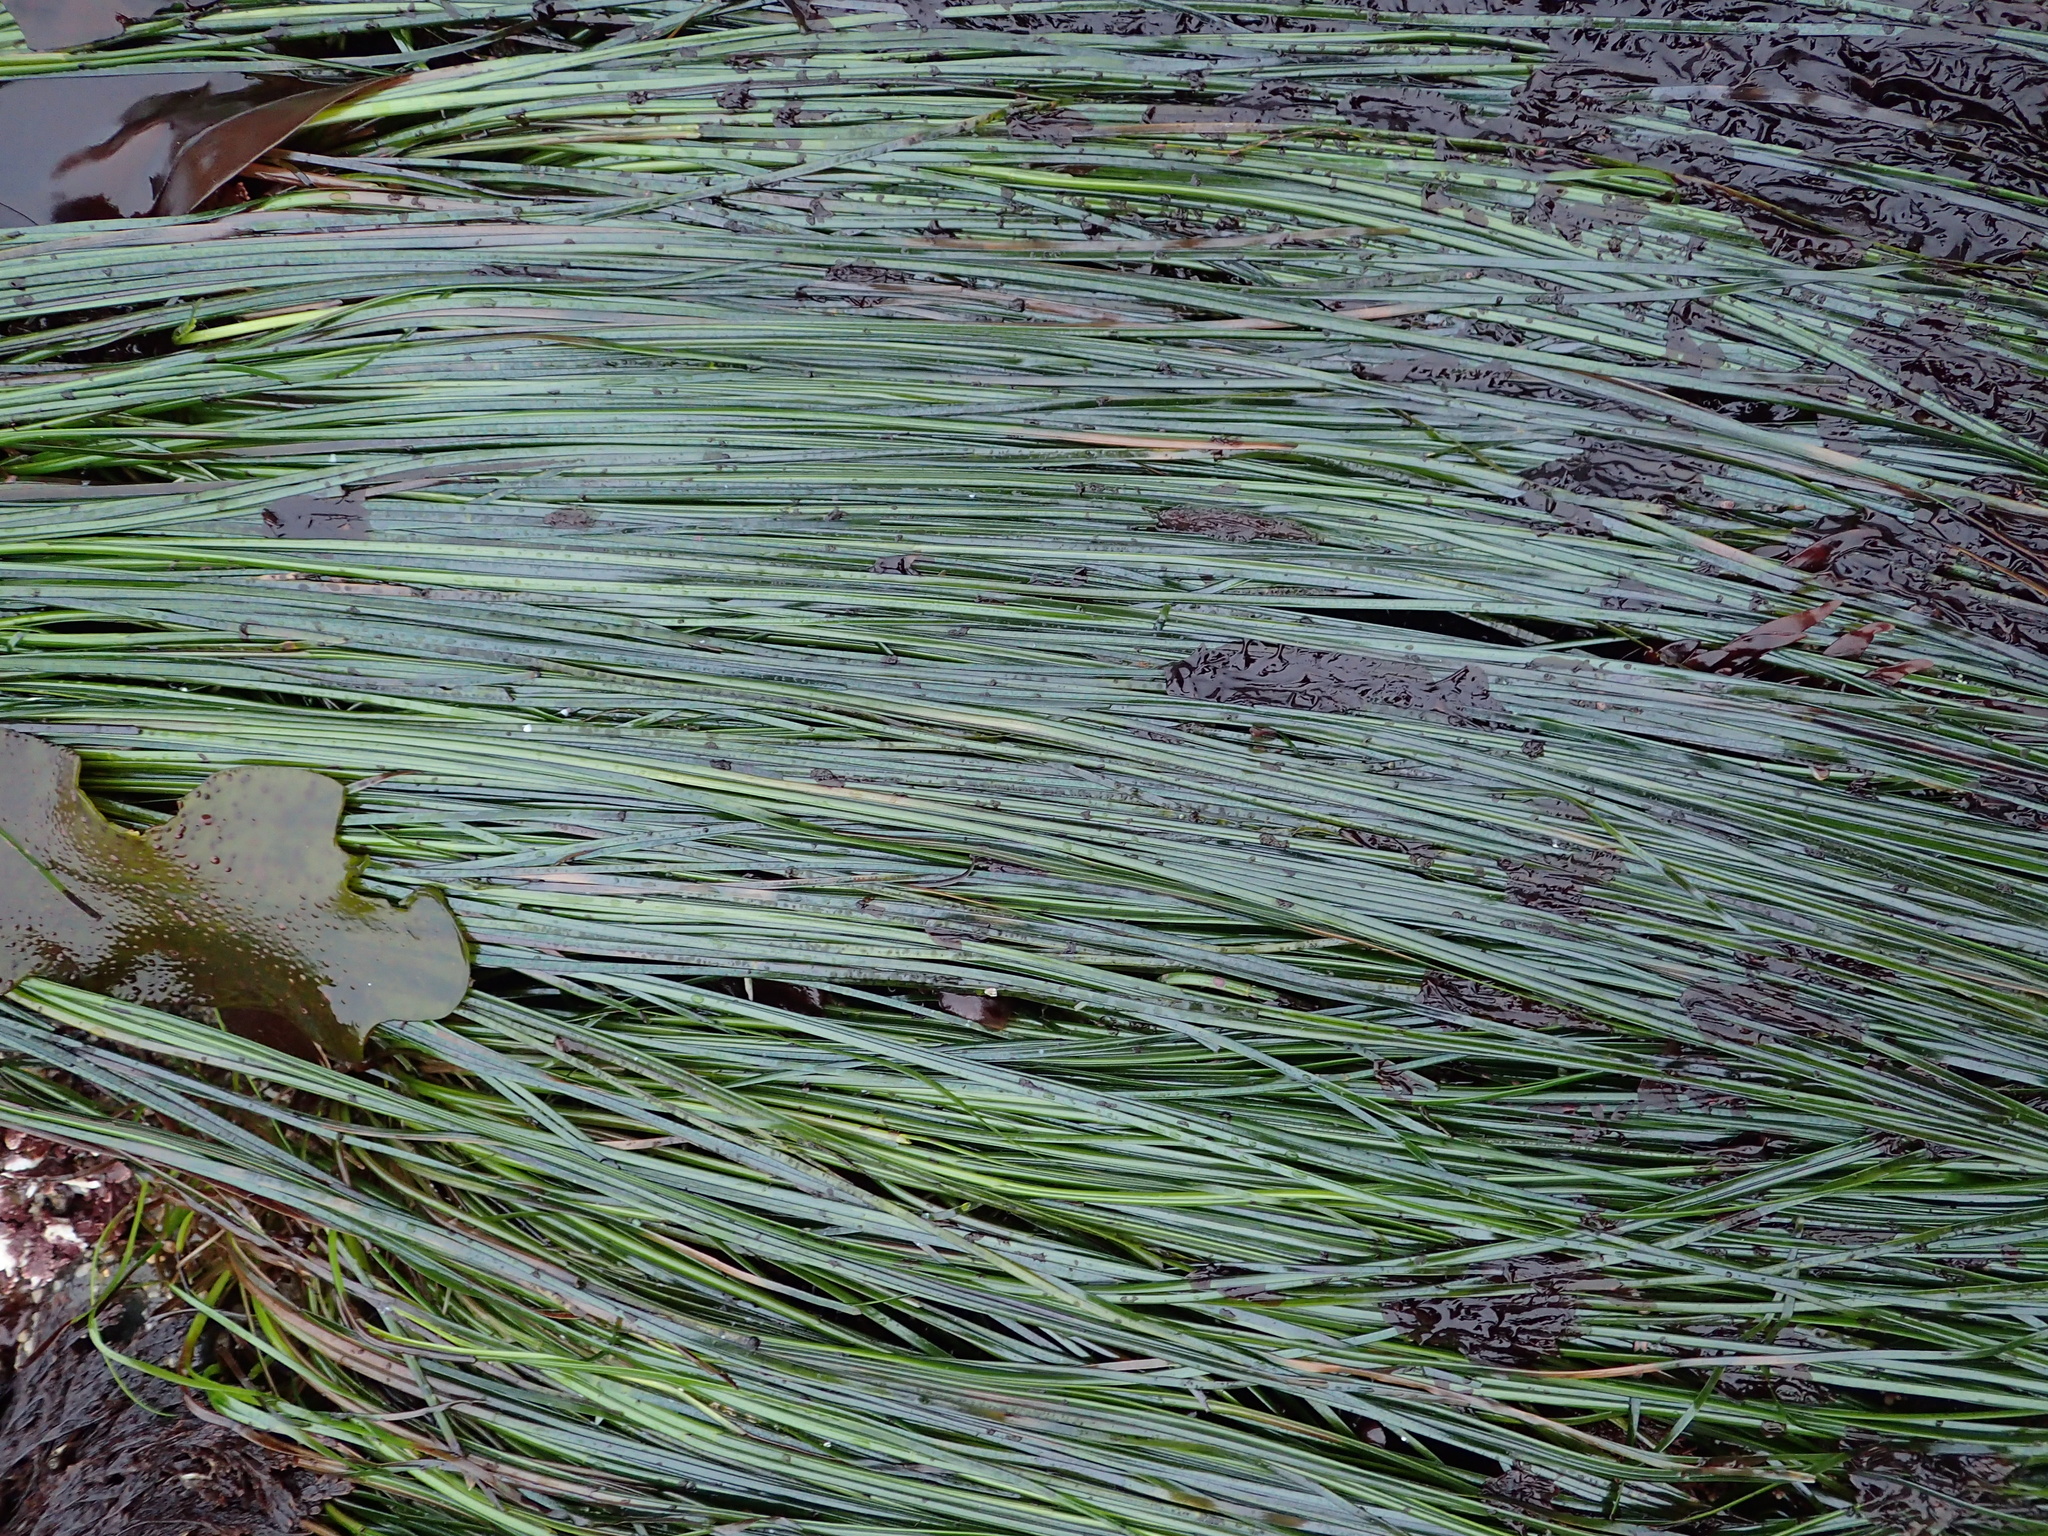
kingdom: Plantae
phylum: Tracheophyta
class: Liliopsida
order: Alismatales
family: Zosteraceae
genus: Phyllospadix
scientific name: Phyllospadix torreyi
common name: Surfgrass
